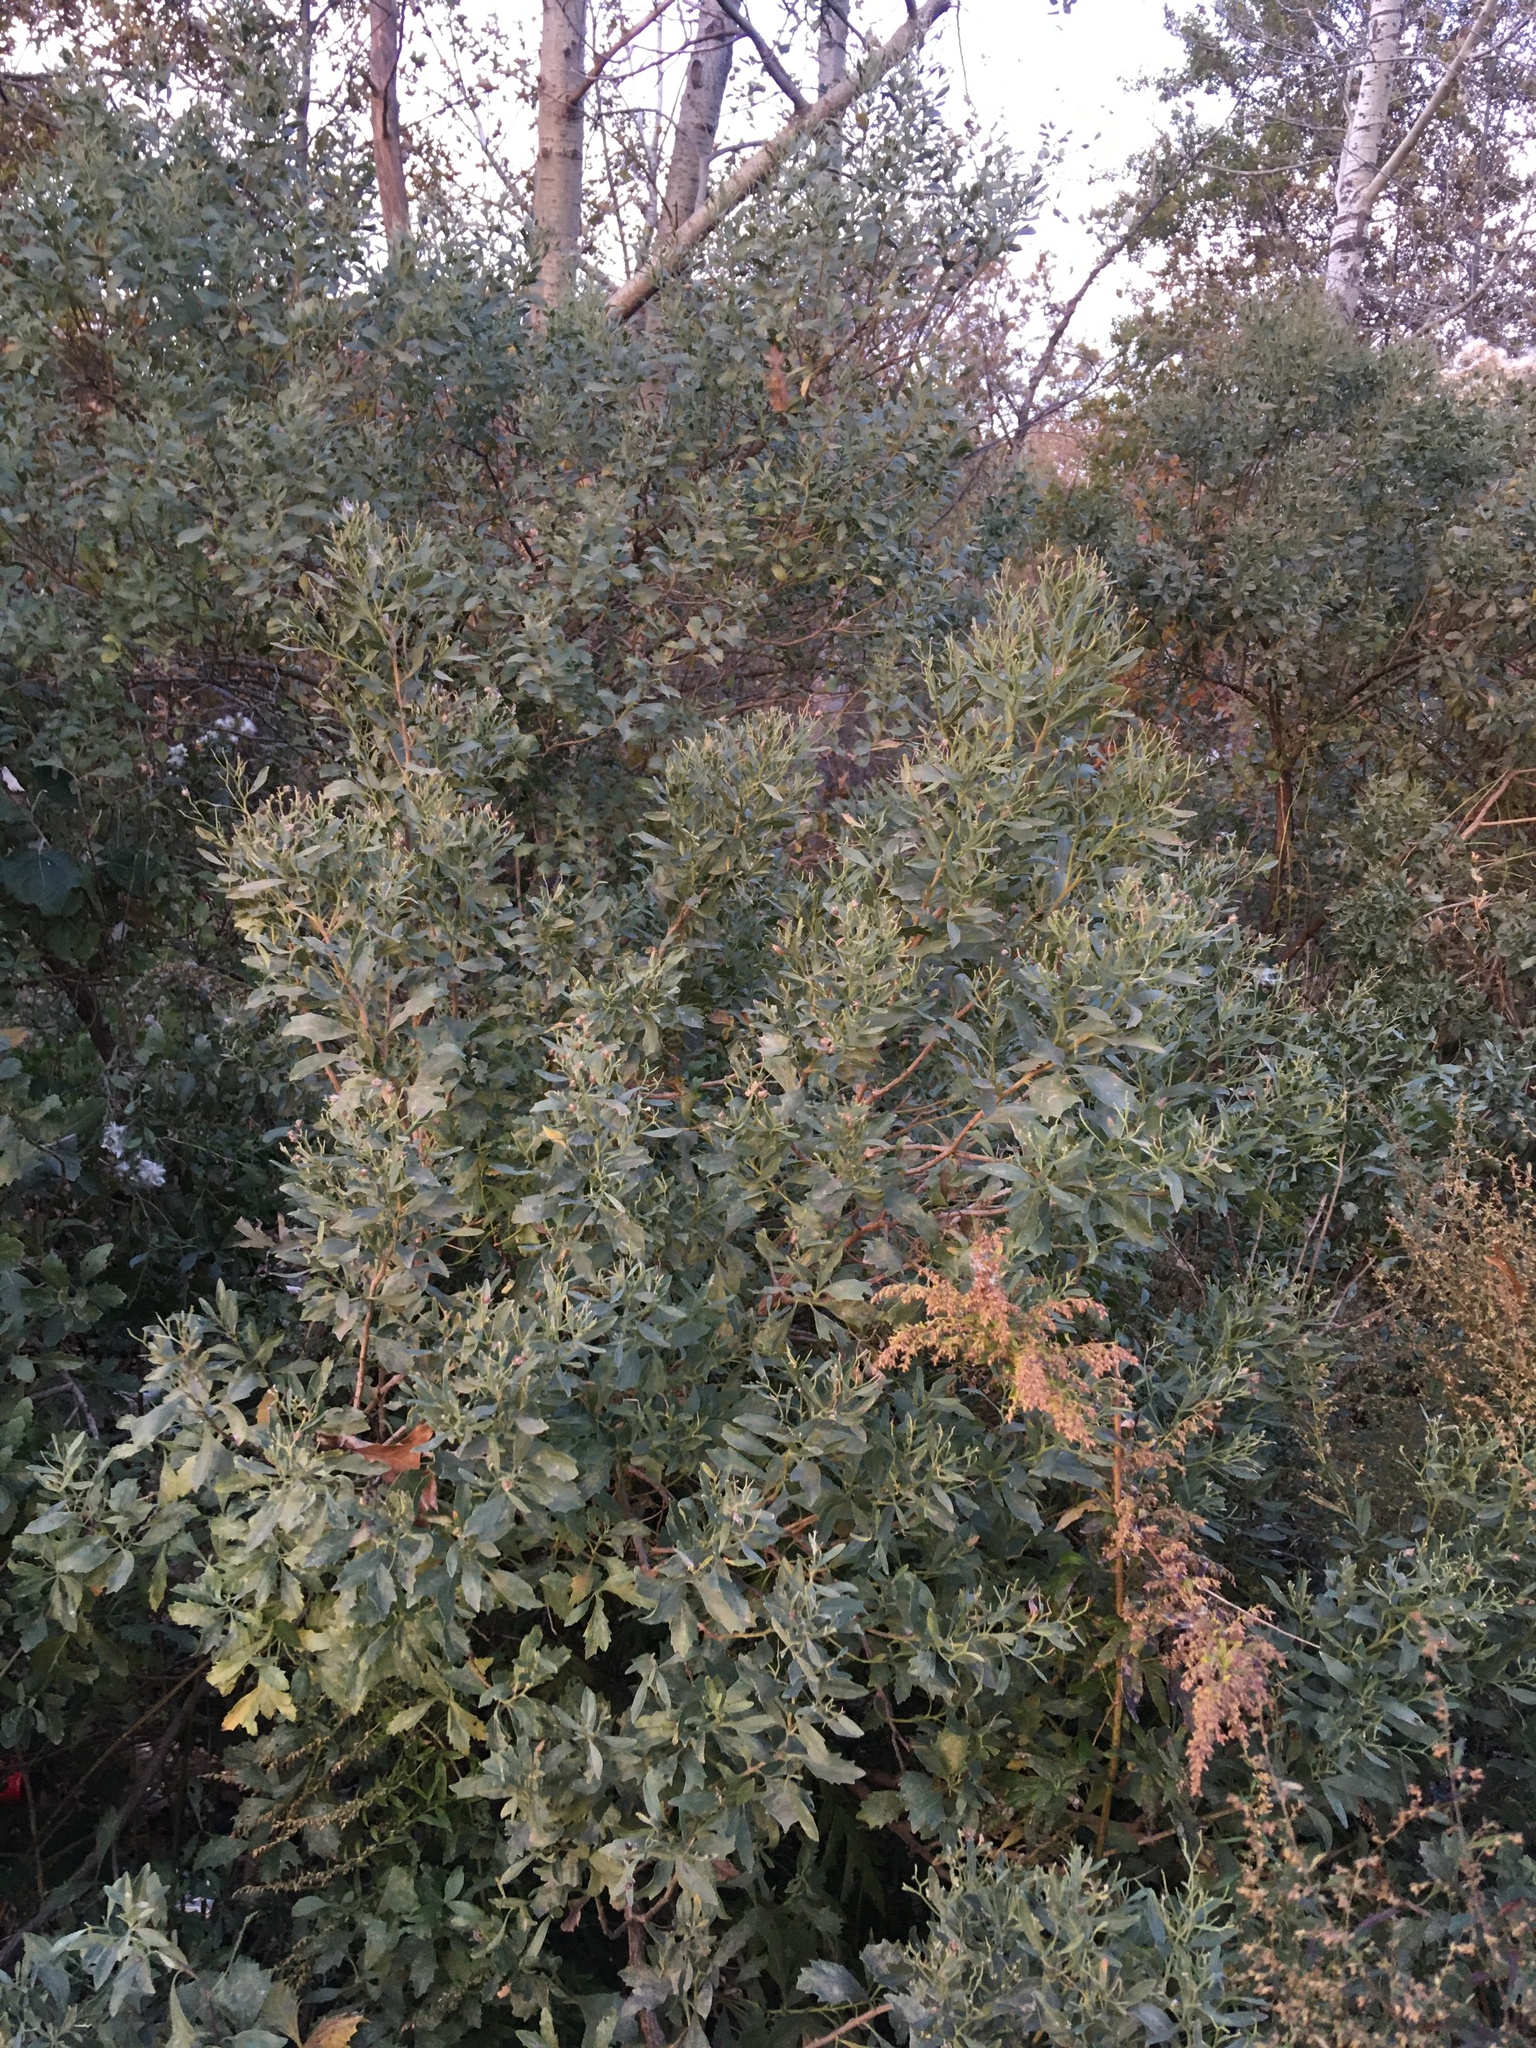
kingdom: Plantae
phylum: Tracheophyta
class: Magnoliopsida
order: Asterales
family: Asteraceae
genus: Baccharis
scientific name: Baccharis halimifolia
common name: Eastern baccharis
